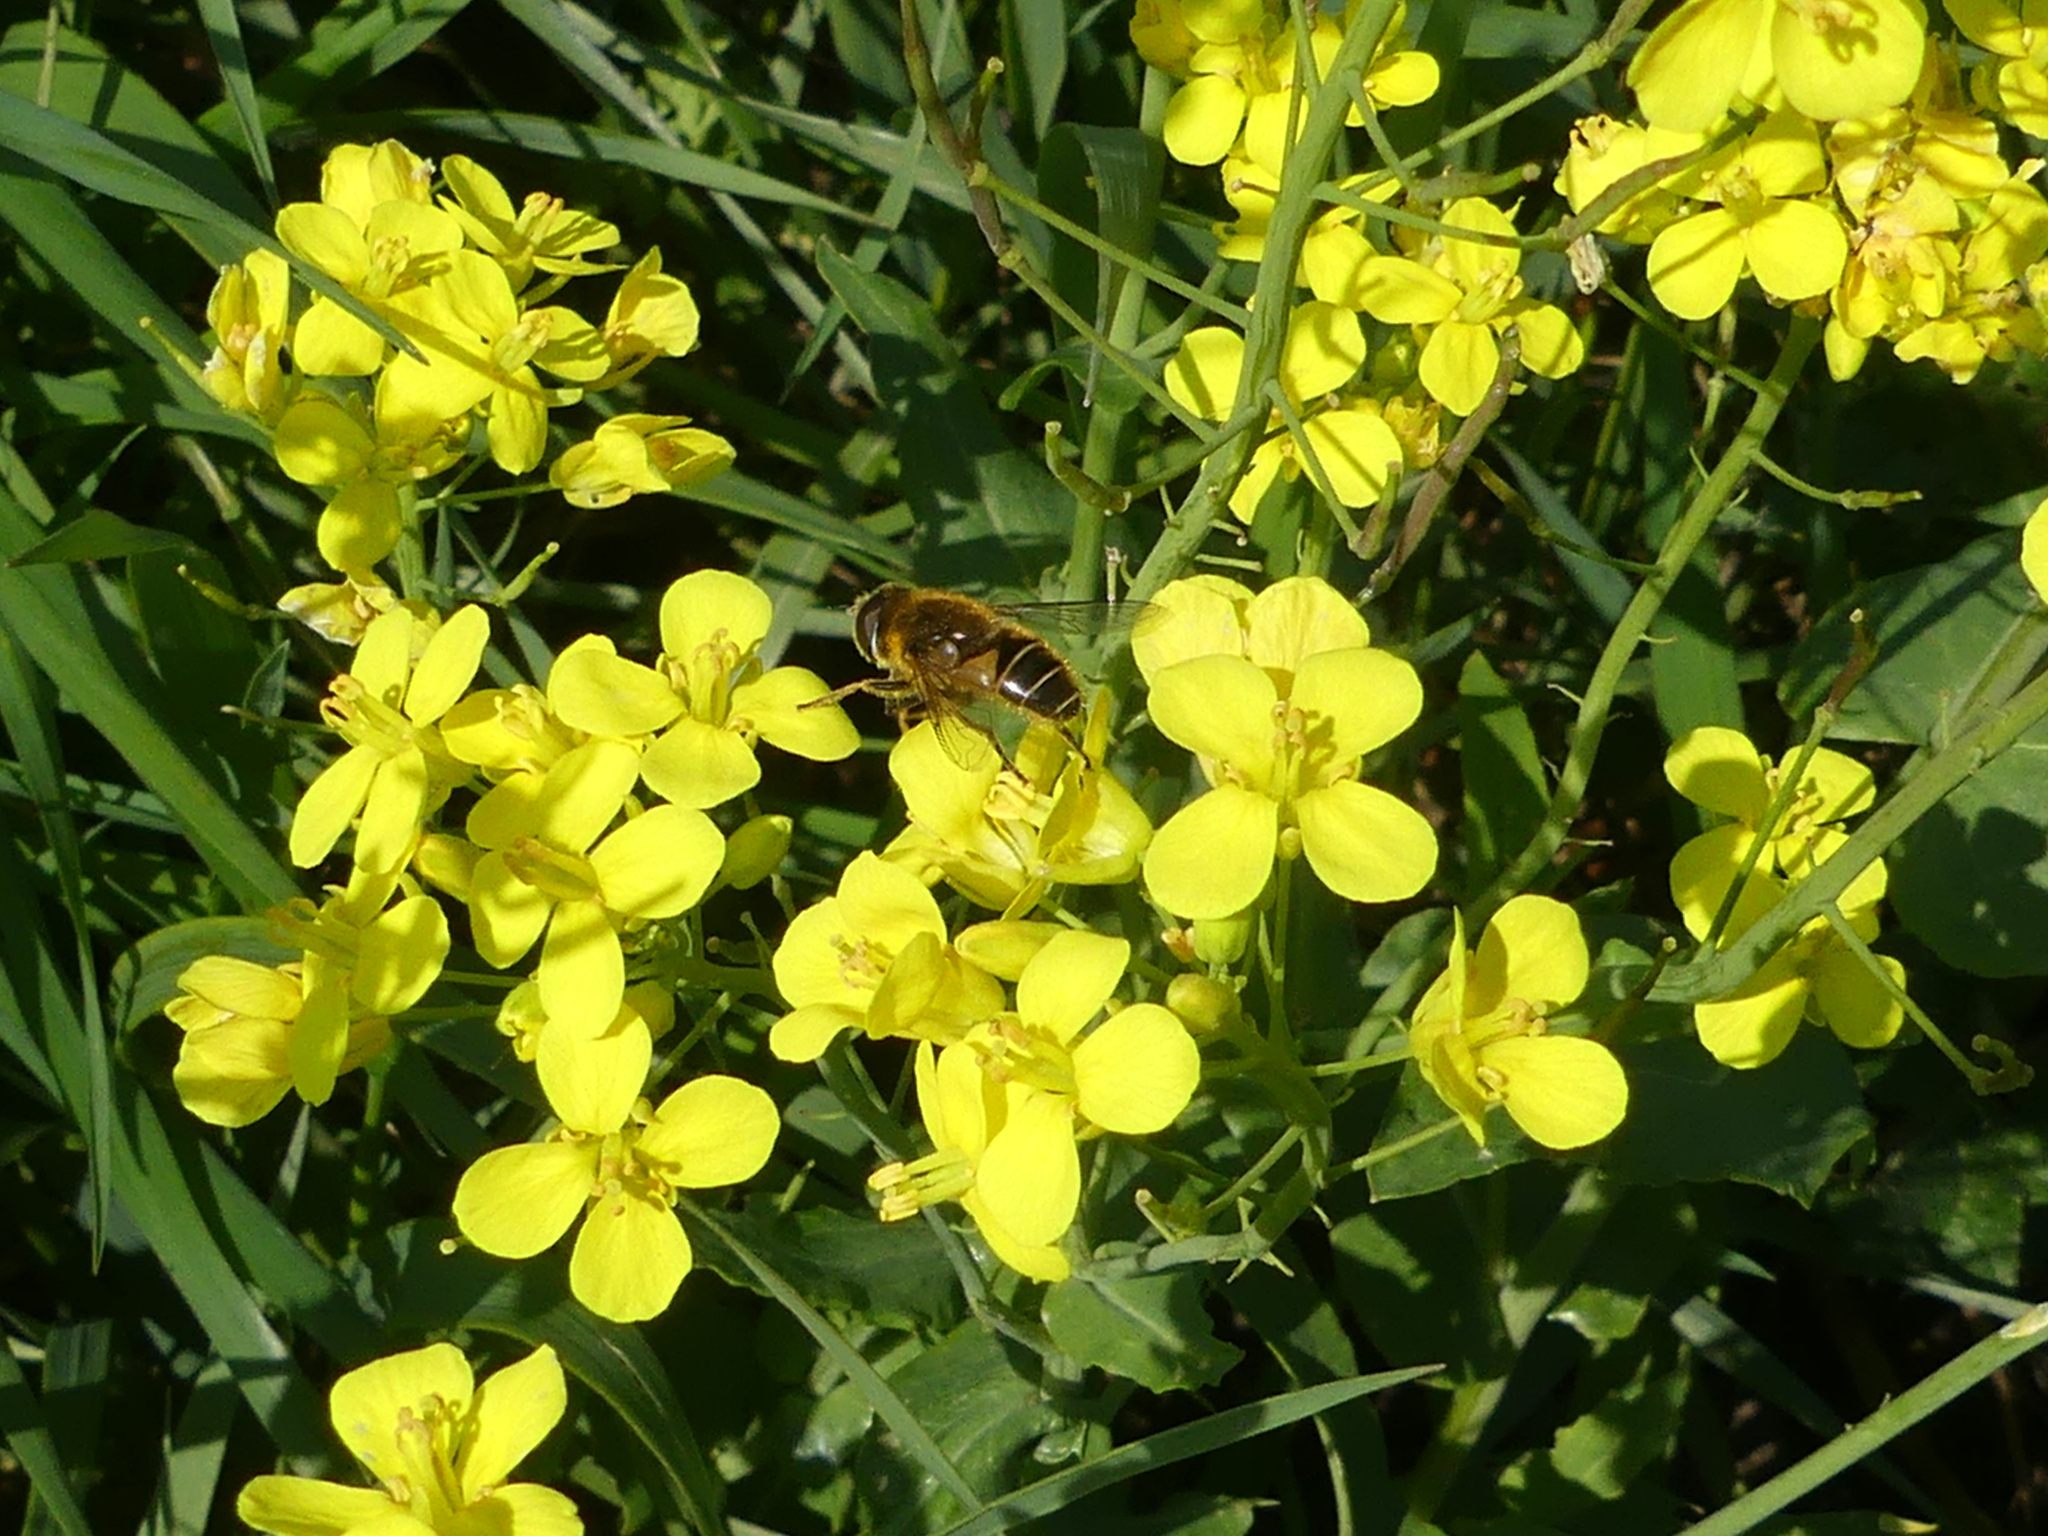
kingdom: Animalia
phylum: Arthropoda
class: Insecta
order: Diptera
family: Syrphidae
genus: Eristalis
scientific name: Eristalis nemorum
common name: Orange-spined drone fly
